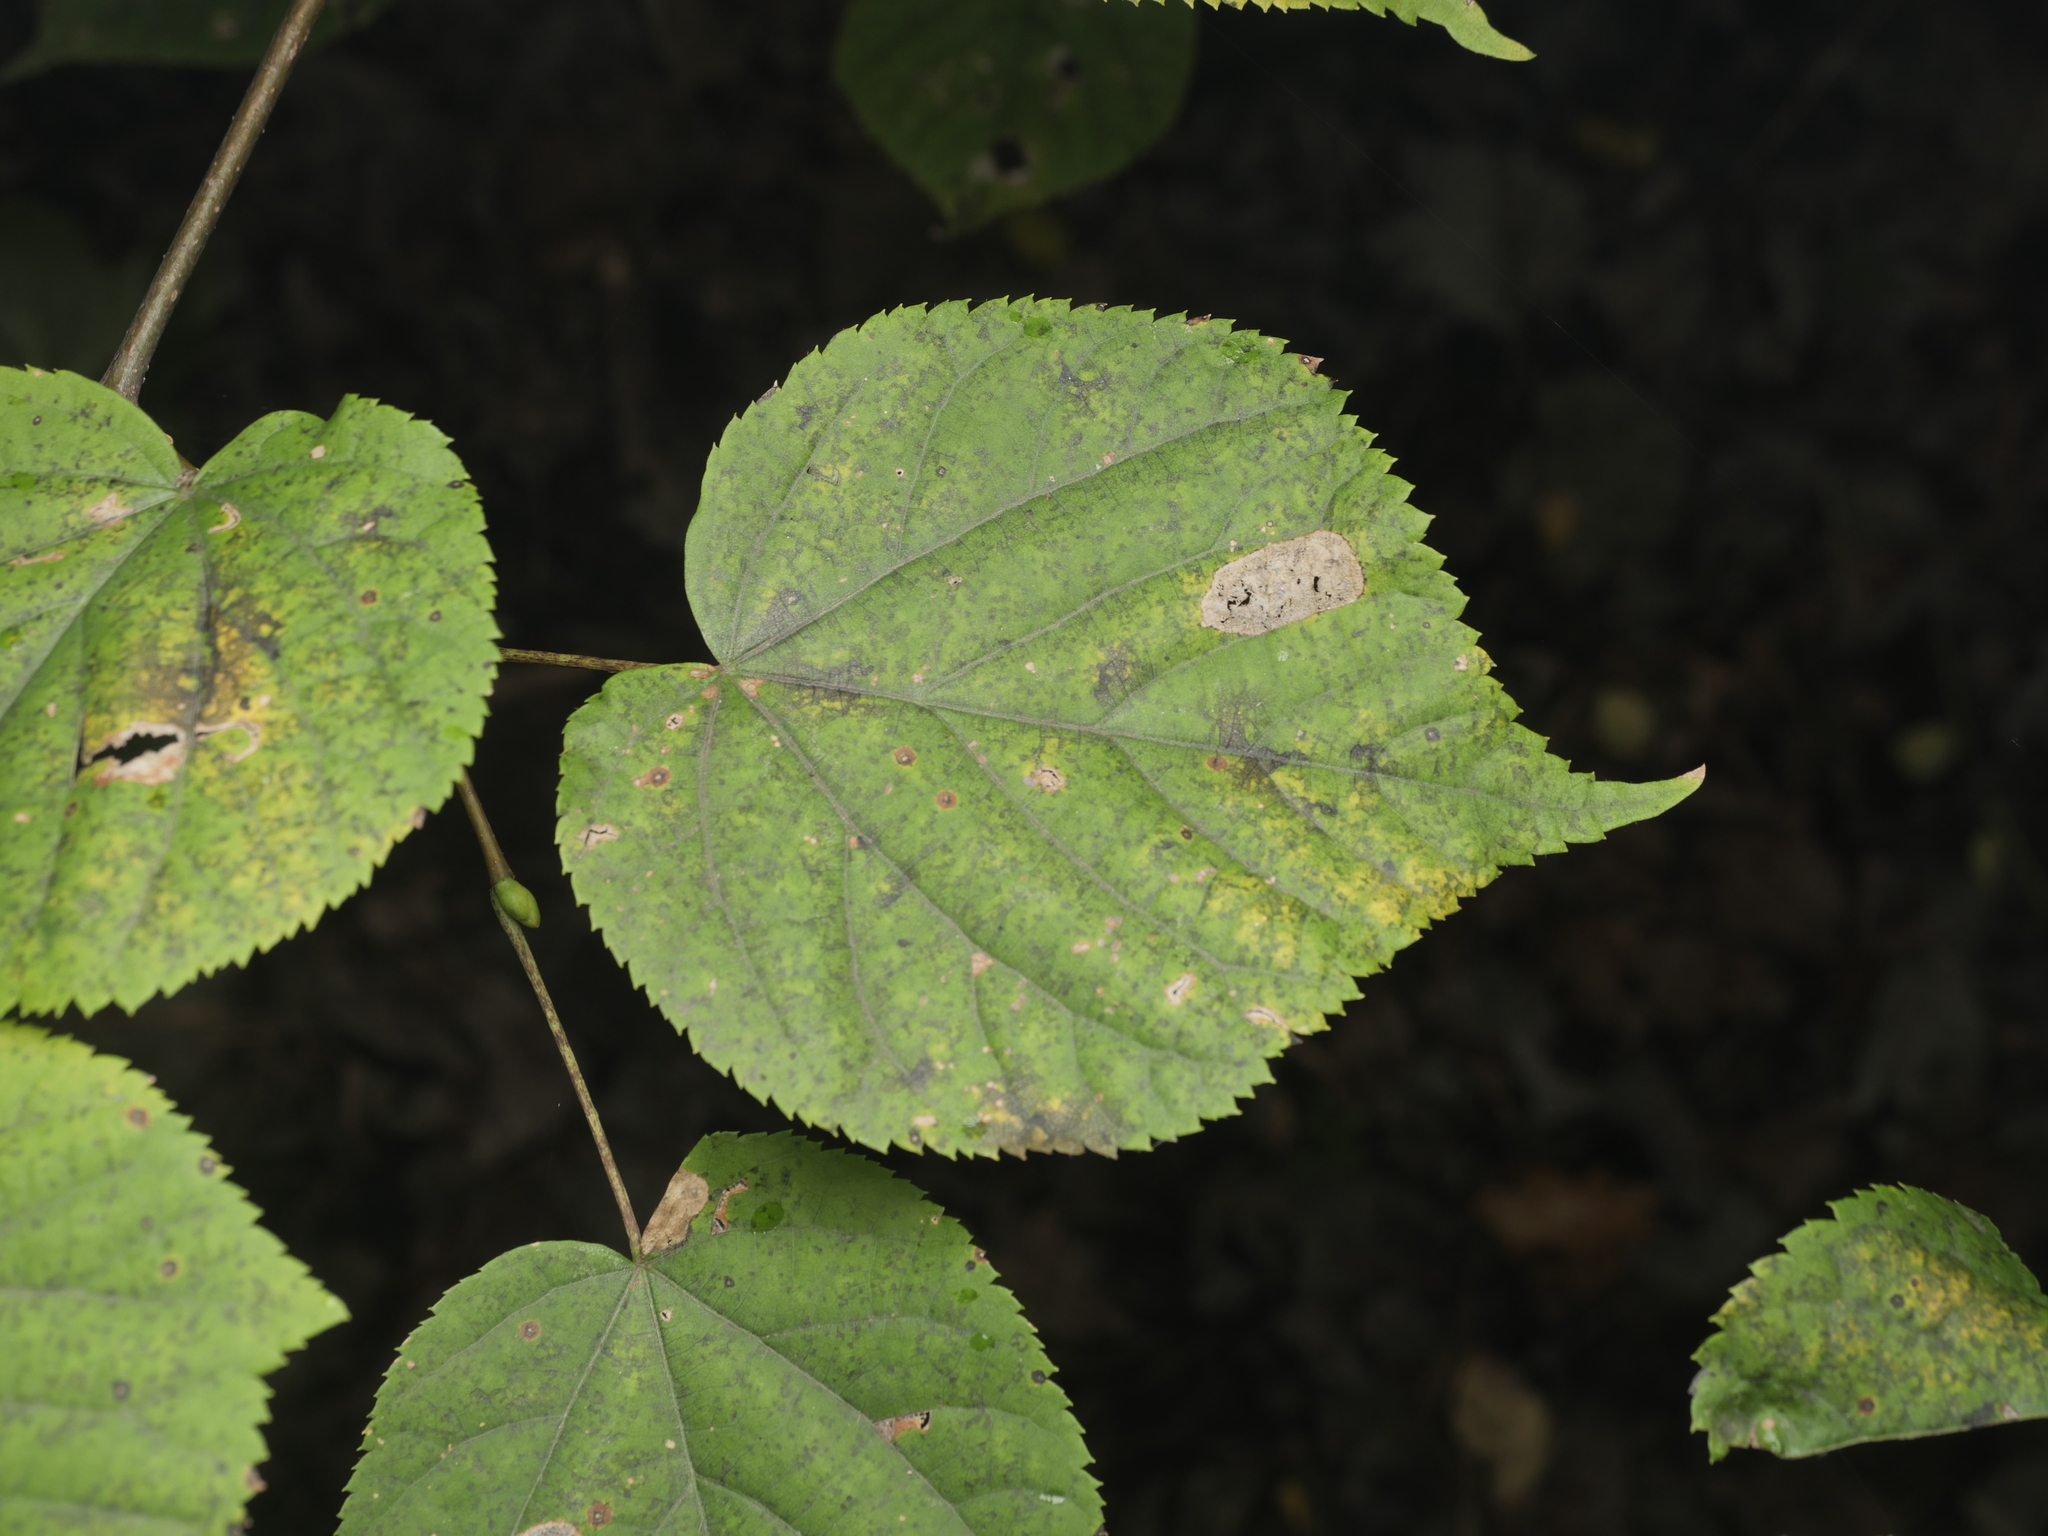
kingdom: Plantae
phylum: Tracheophyta
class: Magnoliopsida
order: Malvales
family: Malvaceae
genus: Tilia
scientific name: Tilia cordata
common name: Small-leaved lime
